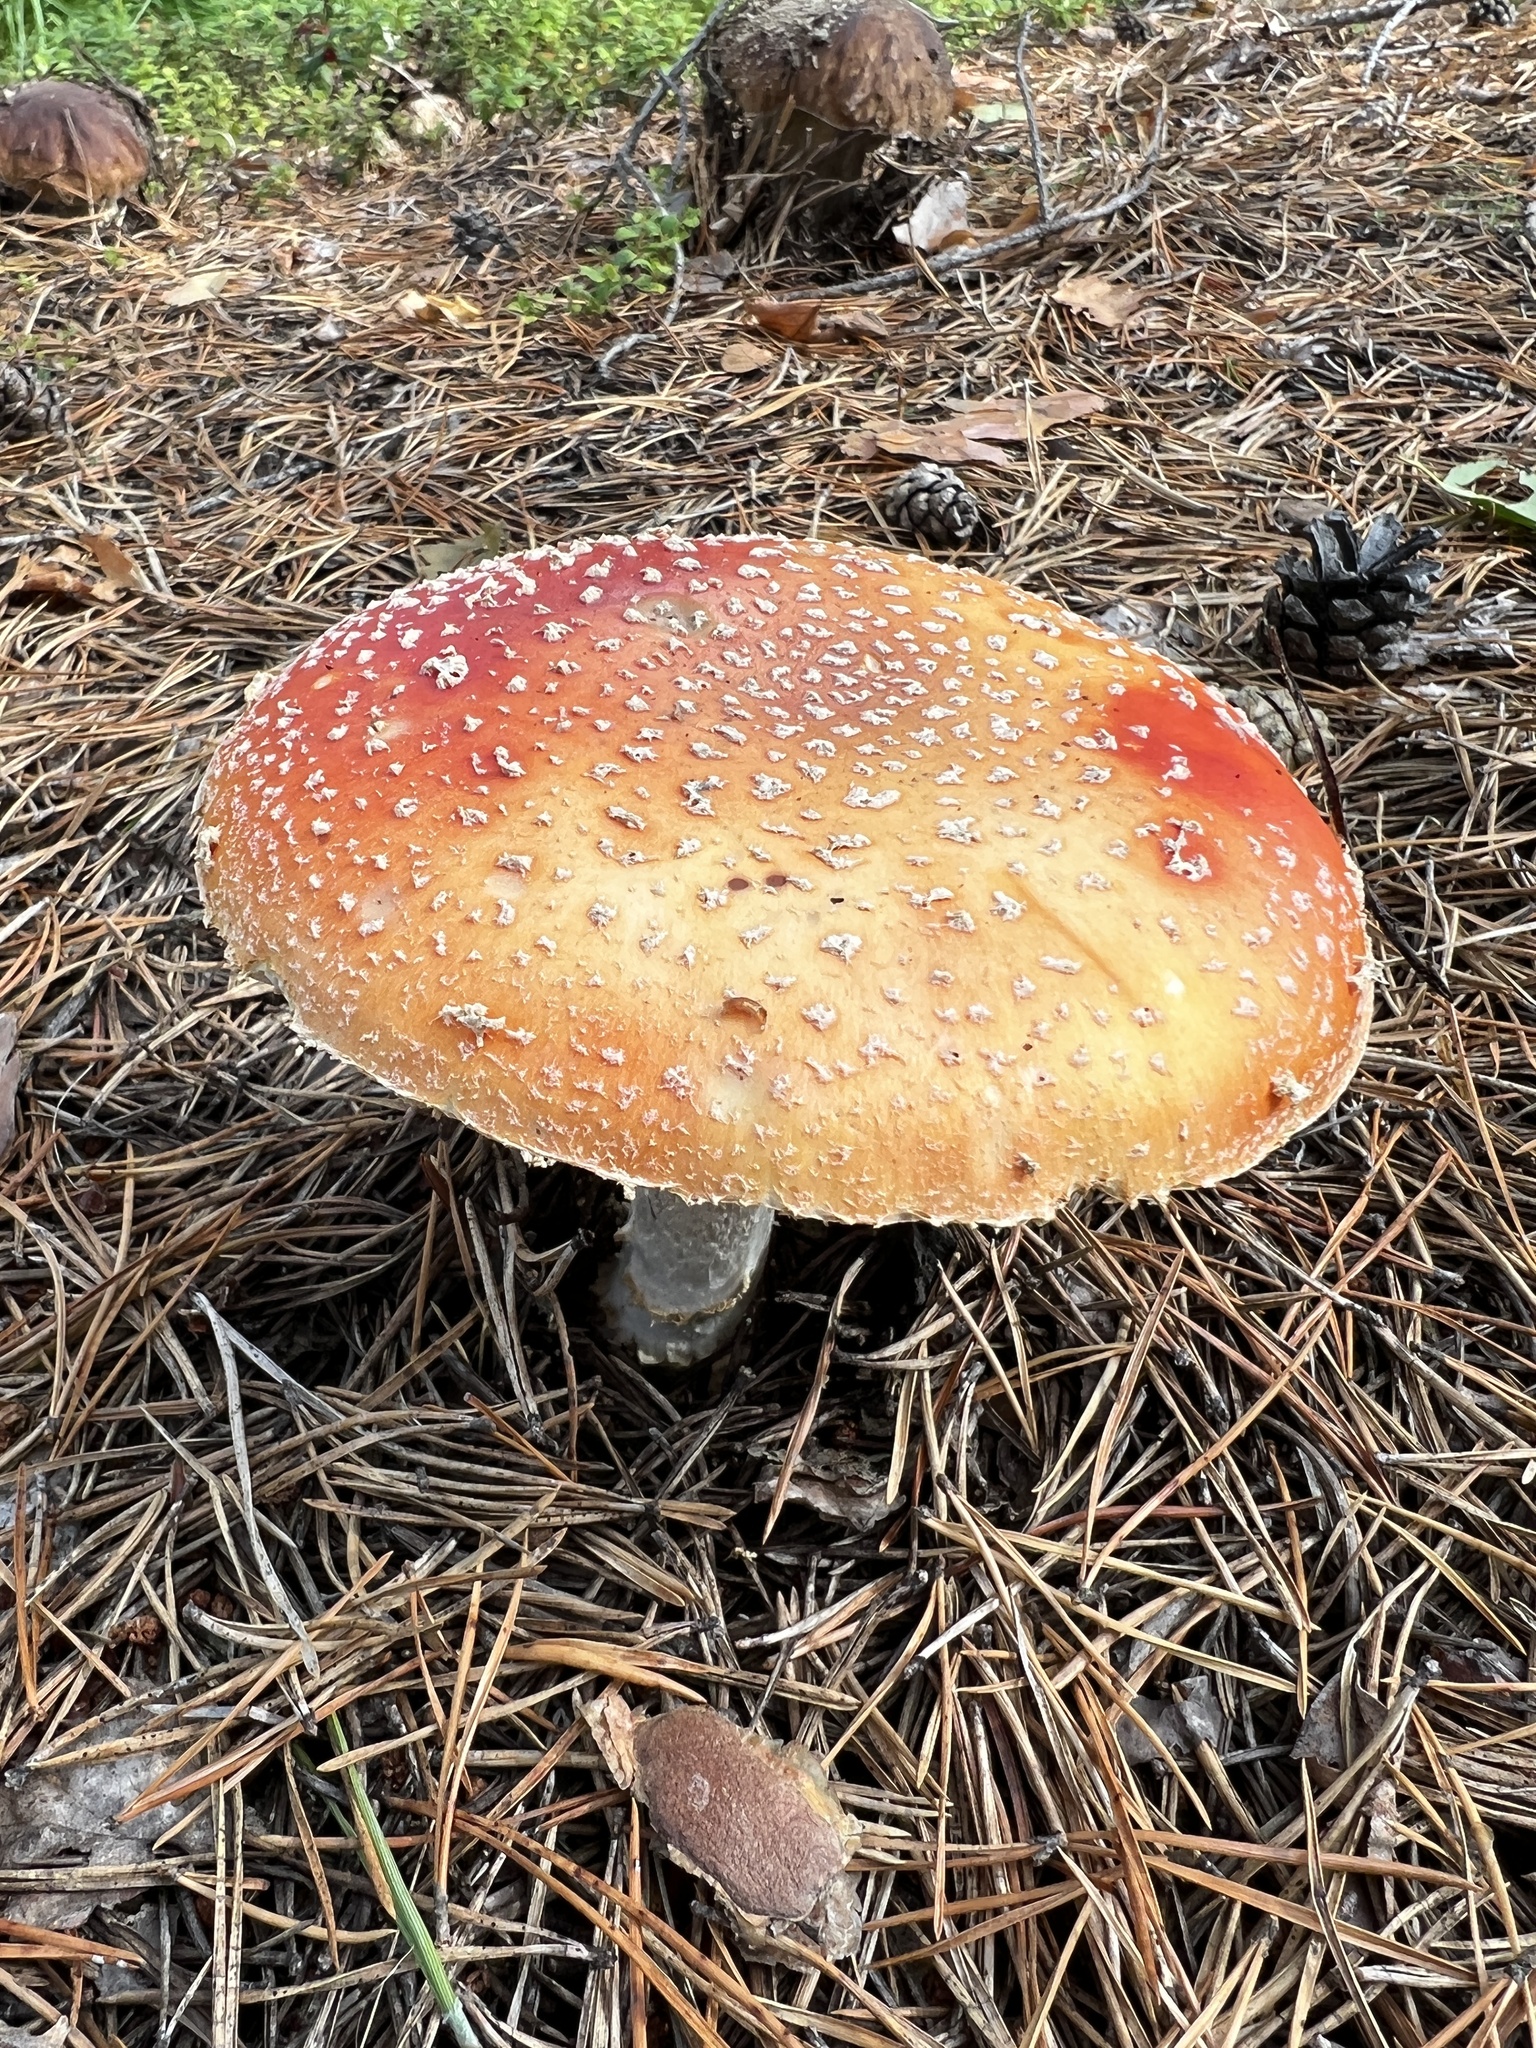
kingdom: Fungi
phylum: Basidiomycota
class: Agaricomycetes
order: Agaricales
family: Amanitaceae
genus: Amanita
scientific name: Amanita muscaria
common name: Fly agaric
